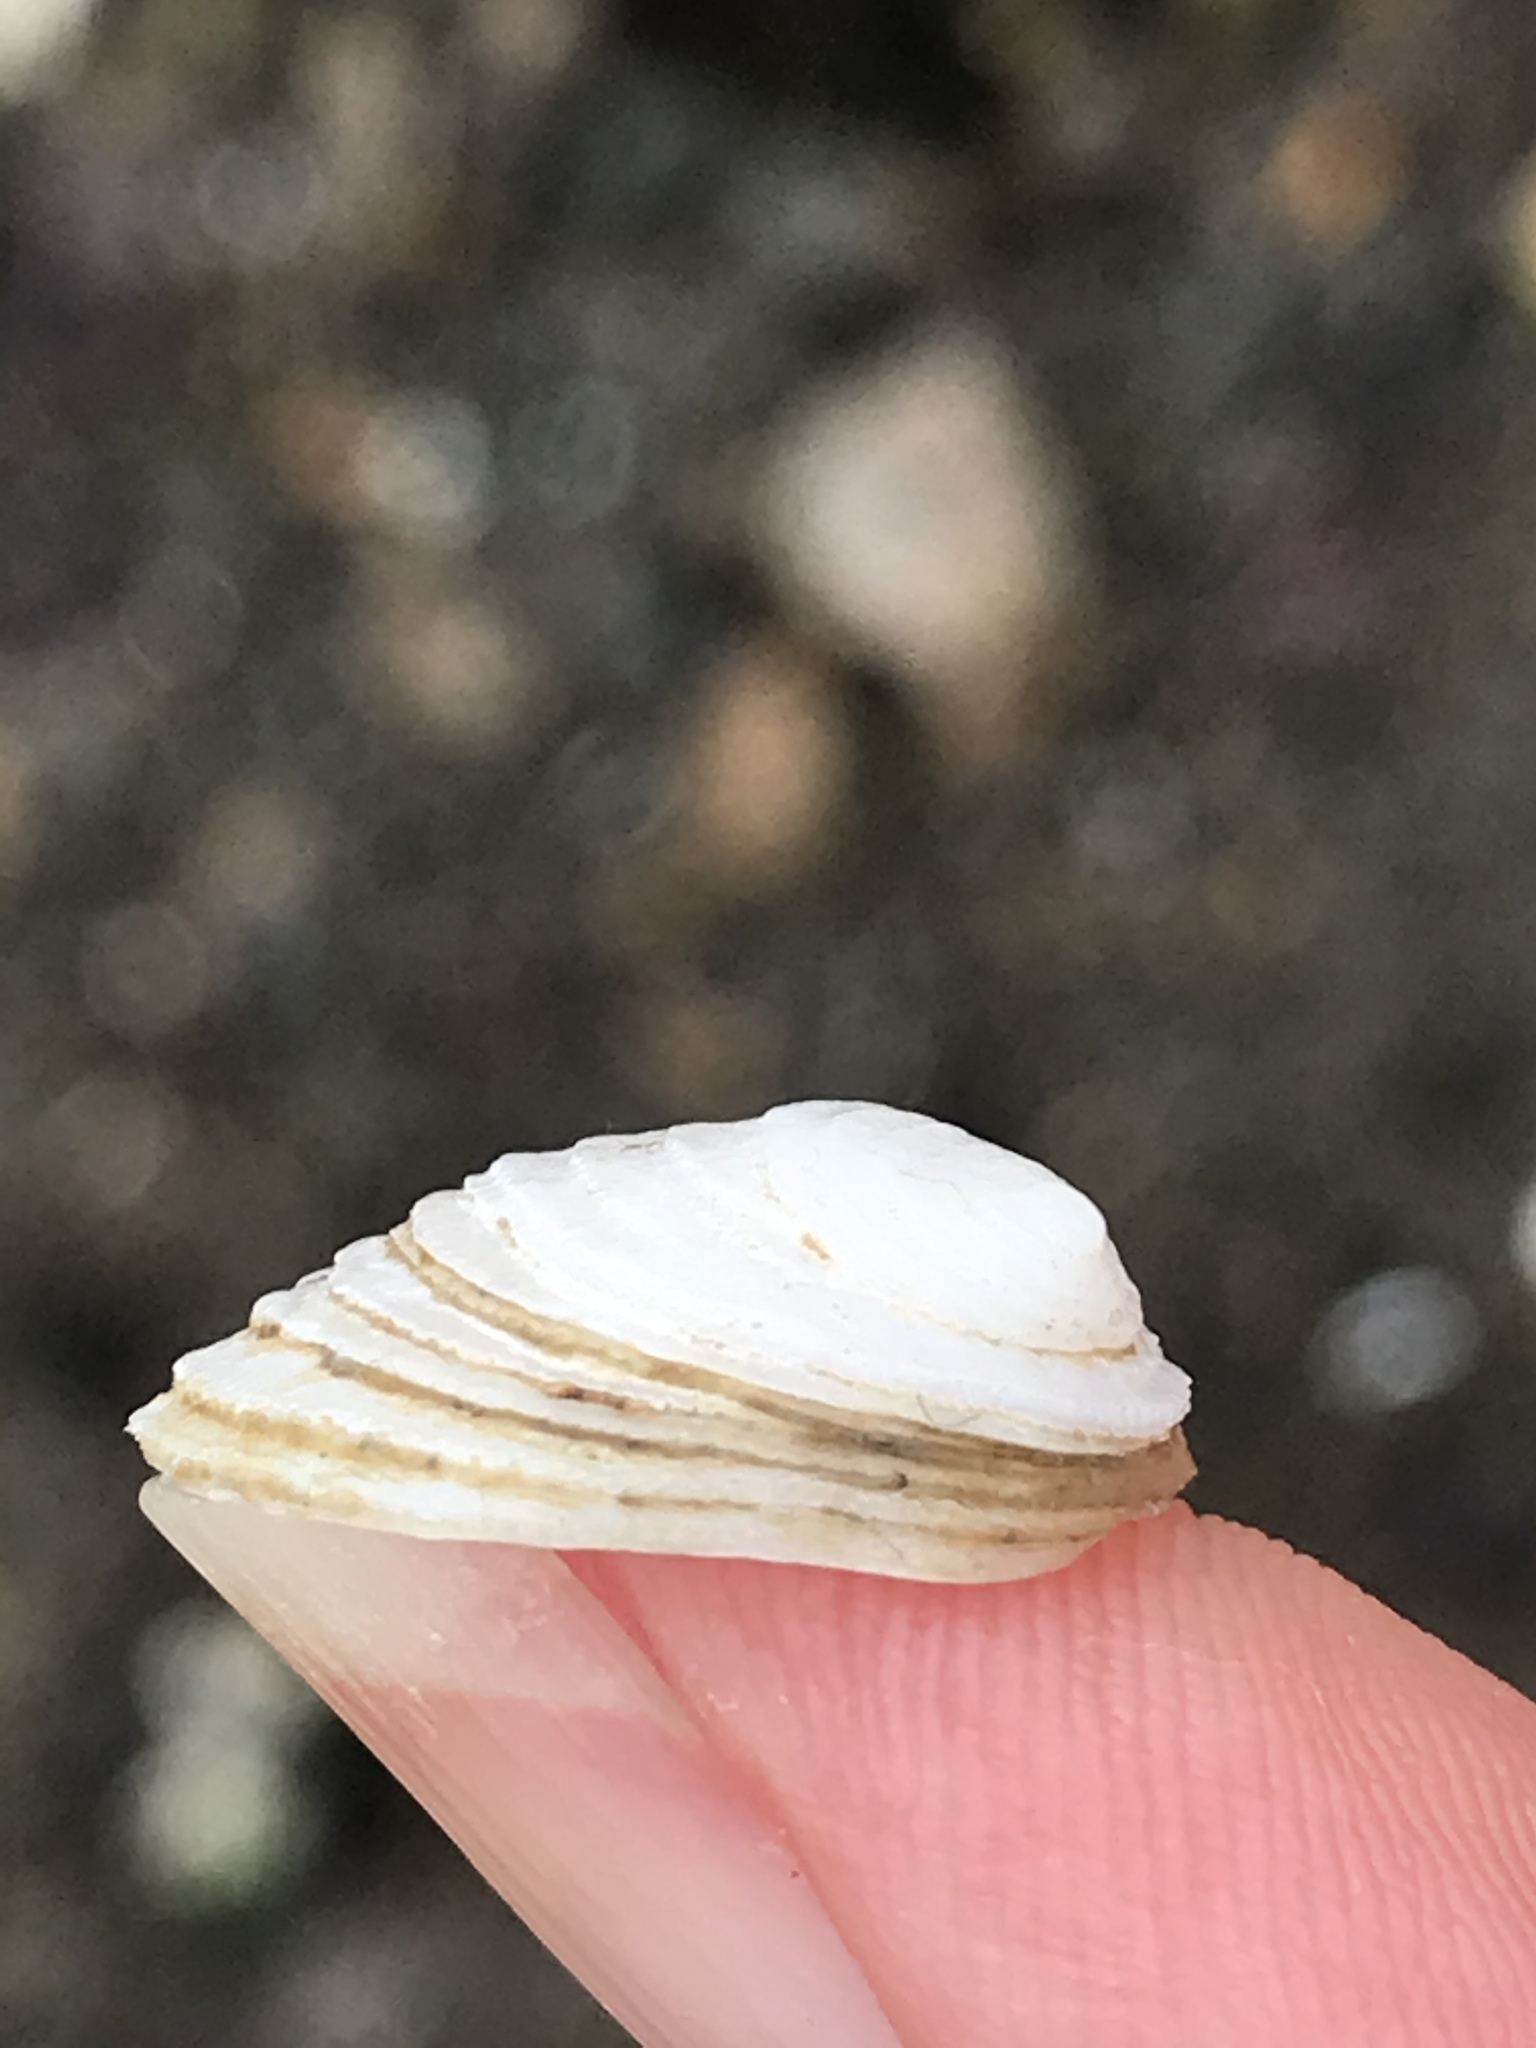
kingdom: Animalia
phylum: Mollusca
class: Gastropoda
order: Littorinimorpha
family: Hipponicidae
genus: Hipponix
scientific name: Hipponix panamensis
